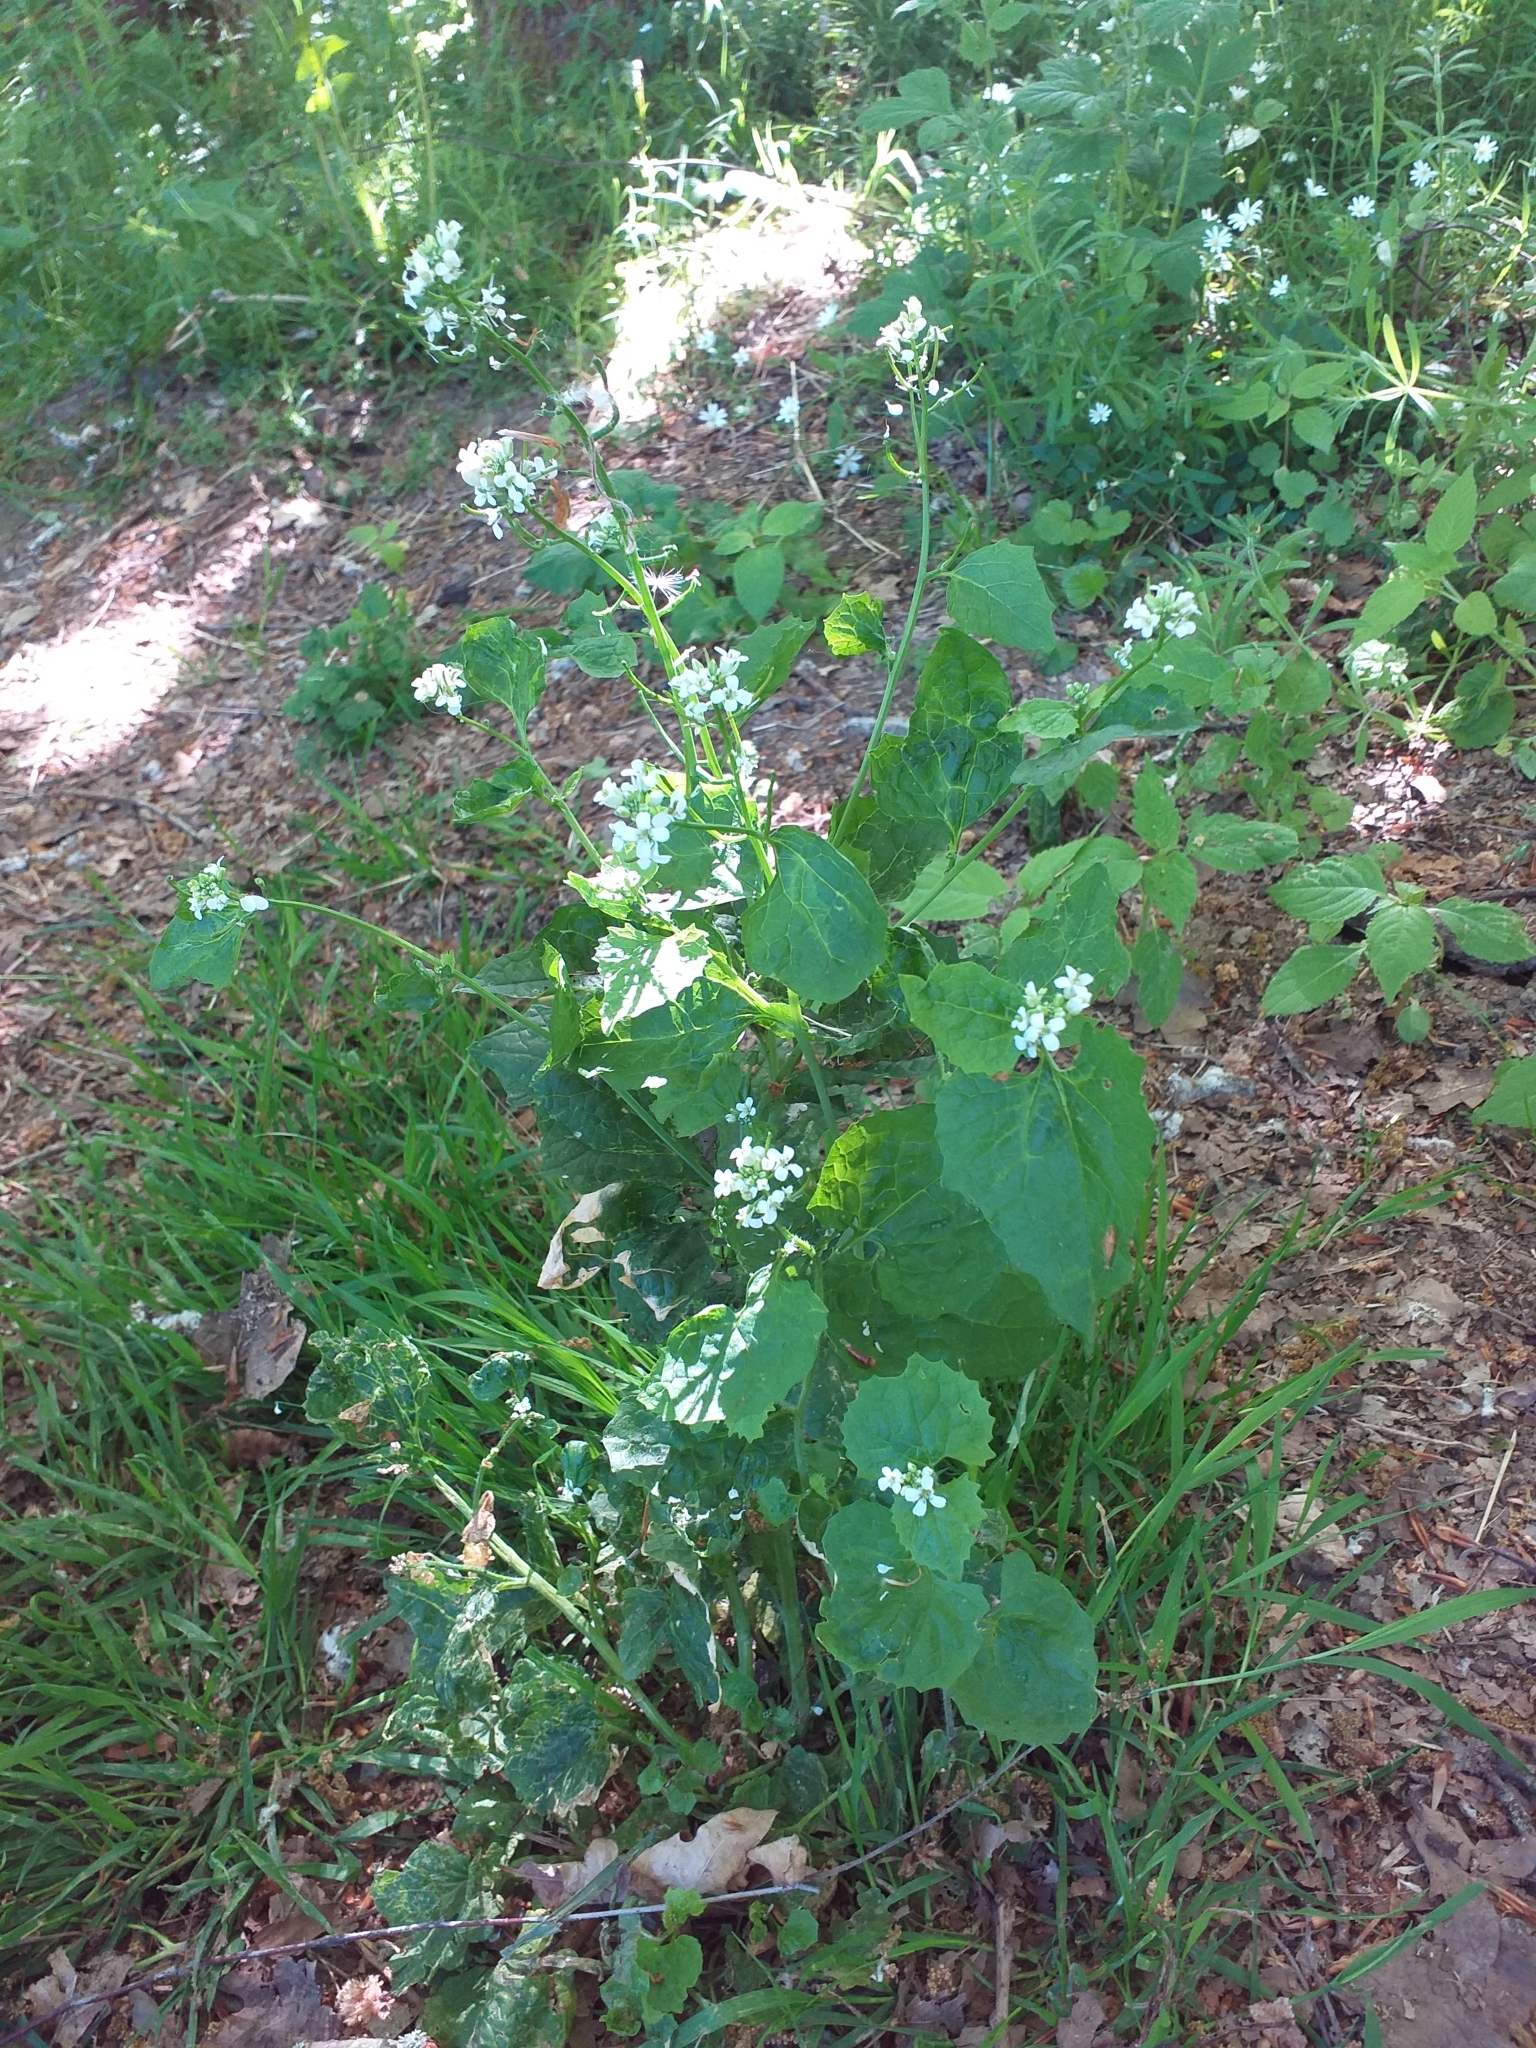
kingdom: Plantae
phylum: Tracheophyta
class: Magnoliopsida
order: Brassicales
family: Brassicaceae
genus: Alliaria
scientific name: Alliaria petiolata
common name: Garlic mustard
